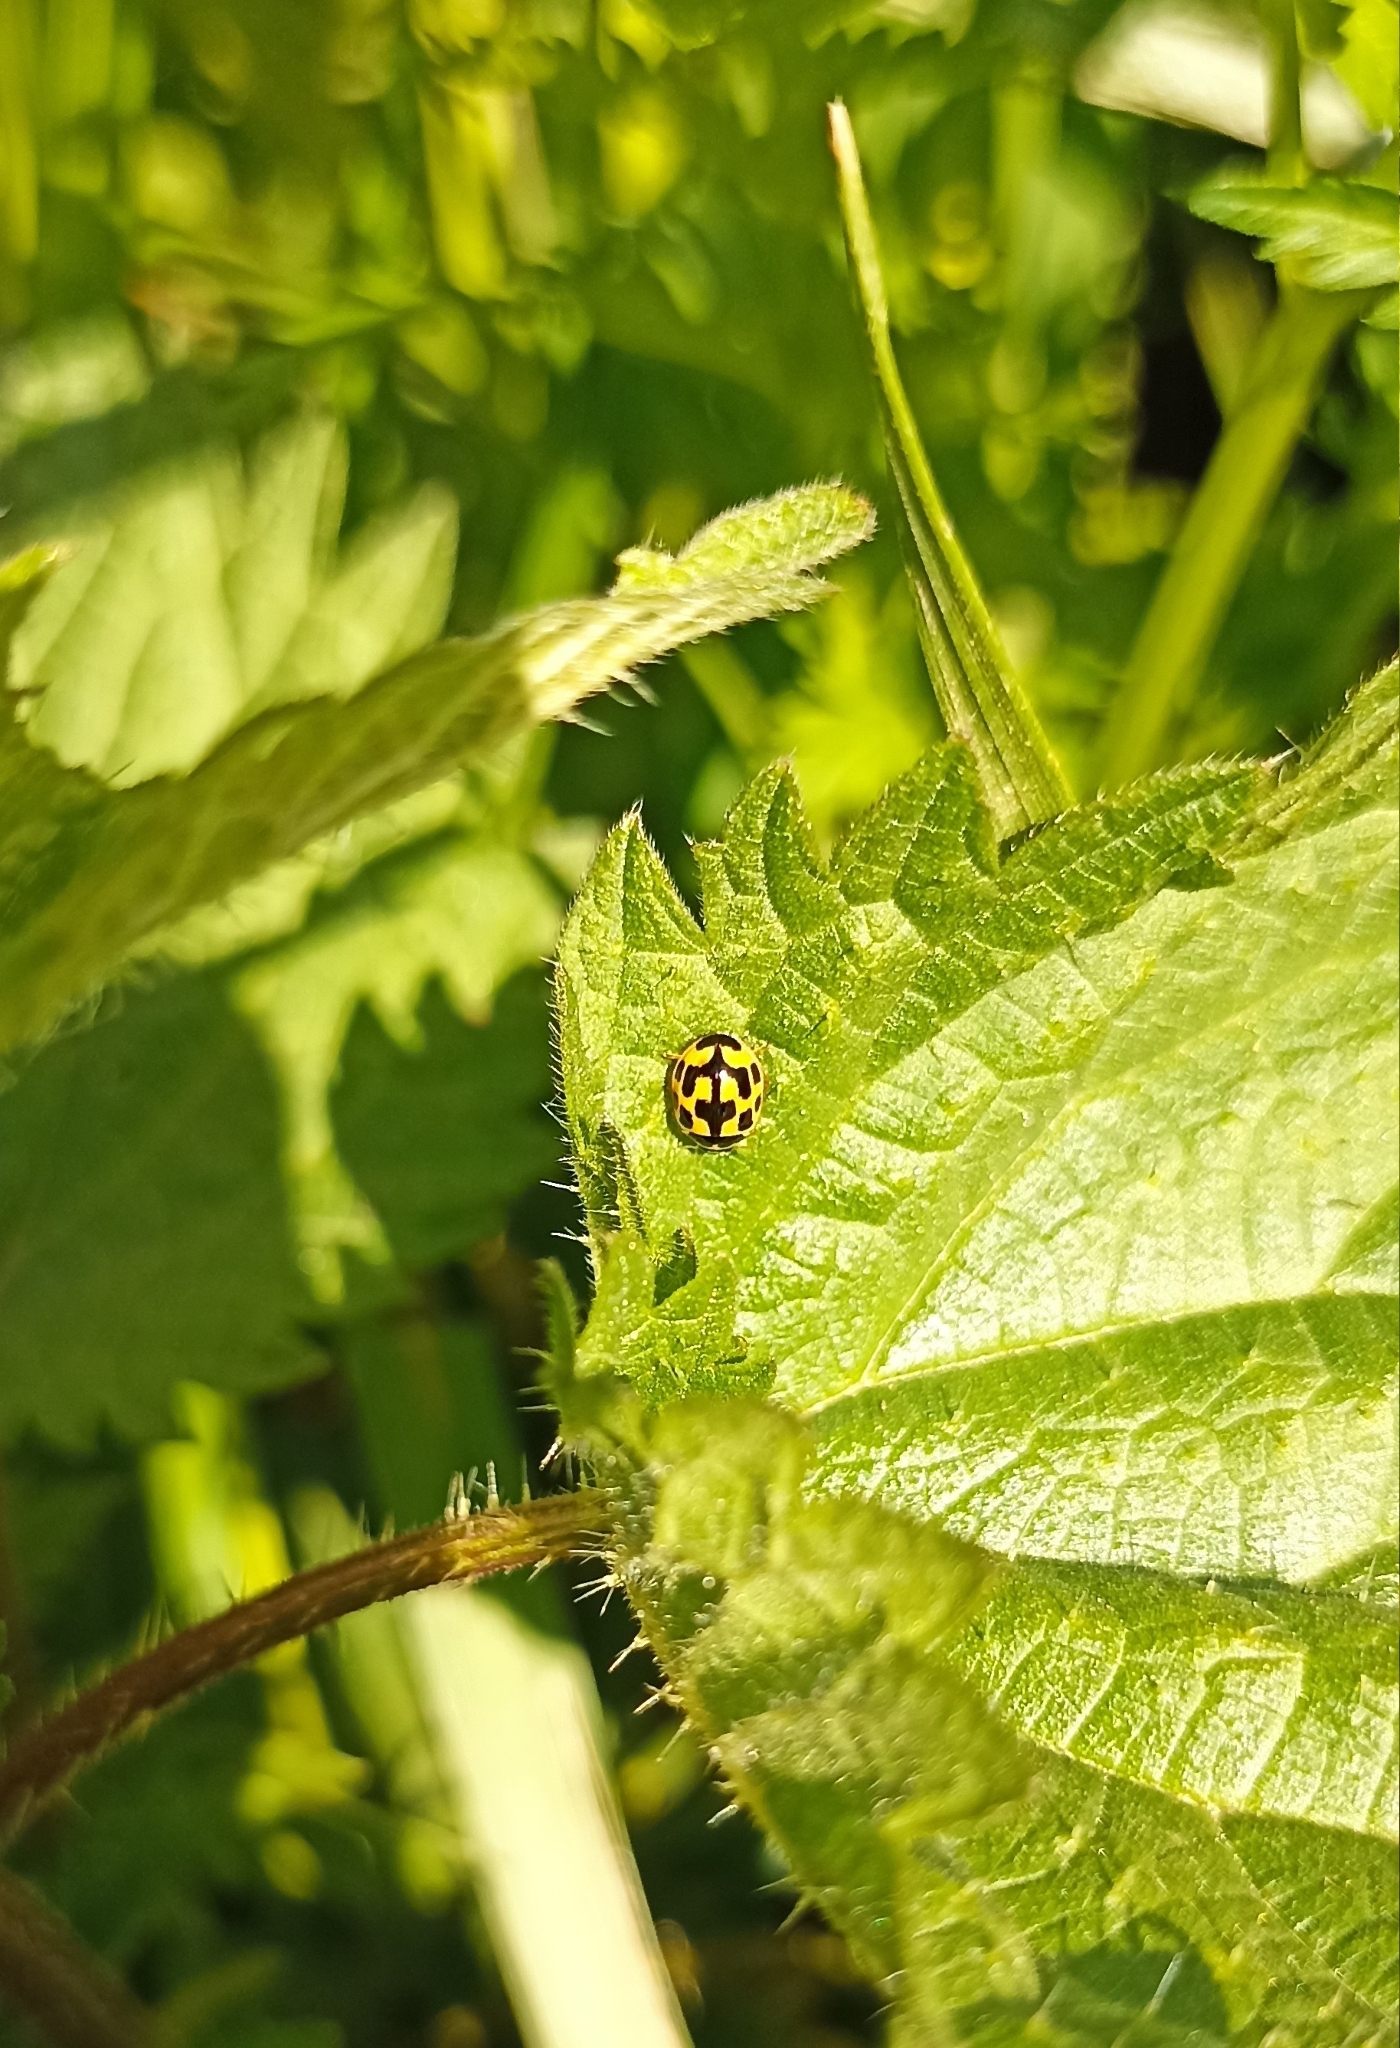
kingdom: Animalia
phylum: Arthropoda
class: Insecta
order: Coleoptera
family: Coccinellidae
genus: Propylaea
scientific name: Propylaea quatuordecimpunctata
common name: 14-spotted ladybird beetle
